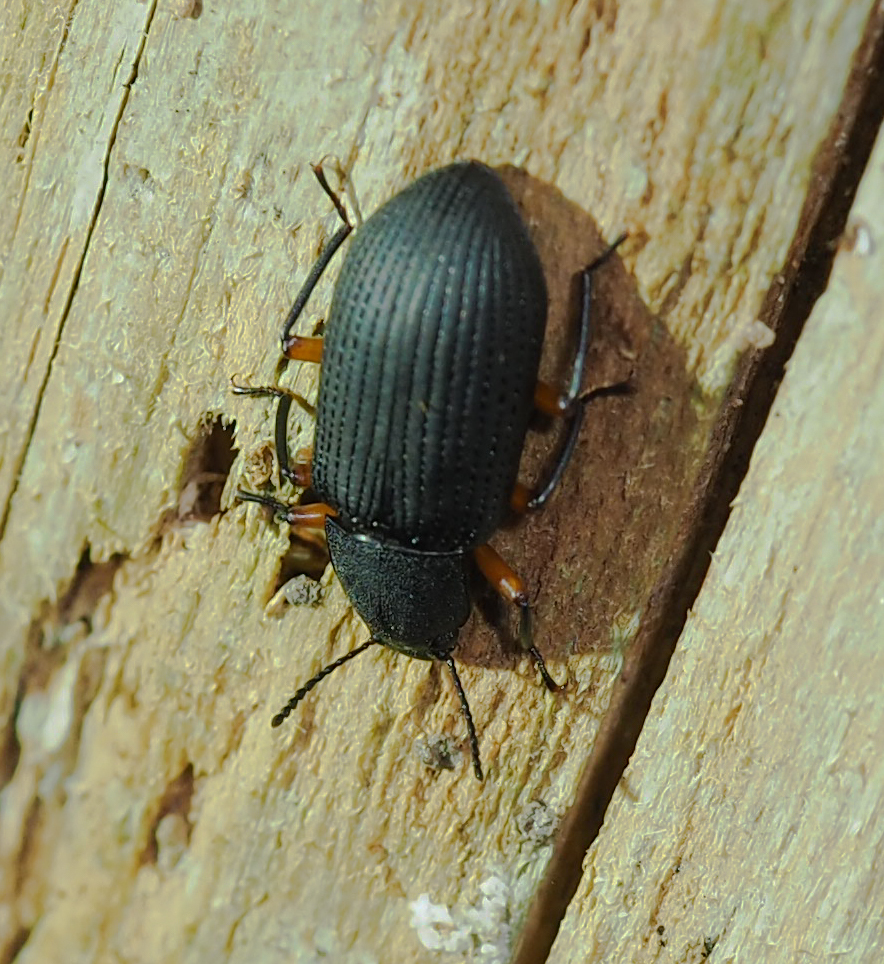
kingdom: Animalia
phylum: Arthropoda
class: Insecta
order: Coleoptera
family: Tenebrionidae
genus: Haplandrus
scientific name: Haplandrus fulvipes
